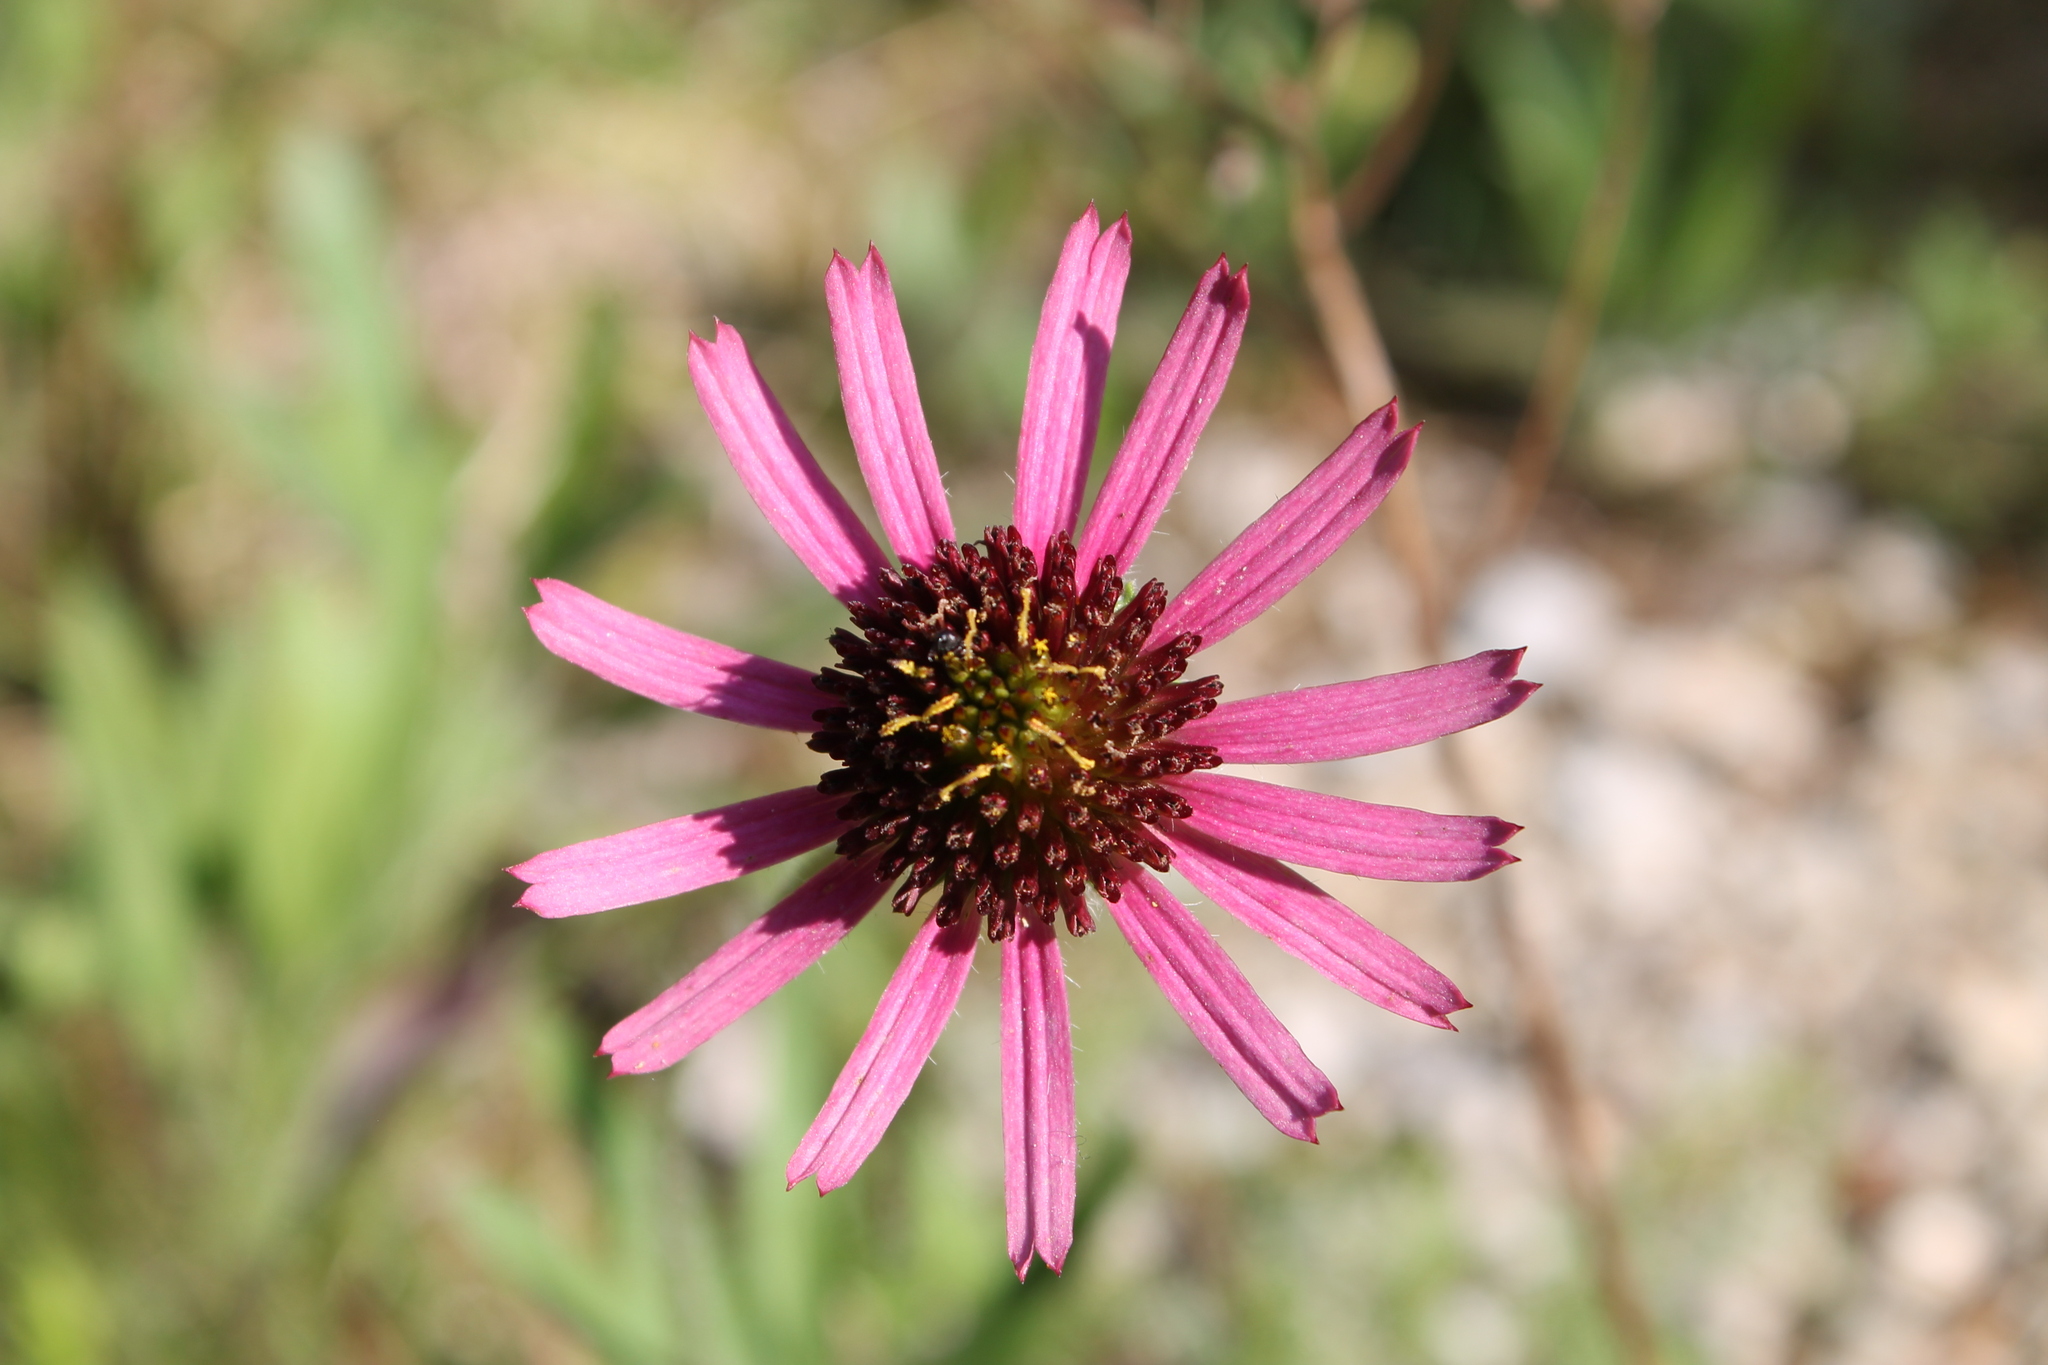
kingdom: Plantae
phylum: Tracheophyta
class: Magnoliopsida
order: Asterales
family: Asteraceae
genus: Echinacea
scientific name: Echinacea tennesseensis
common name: Tennessee purple-coneflower
